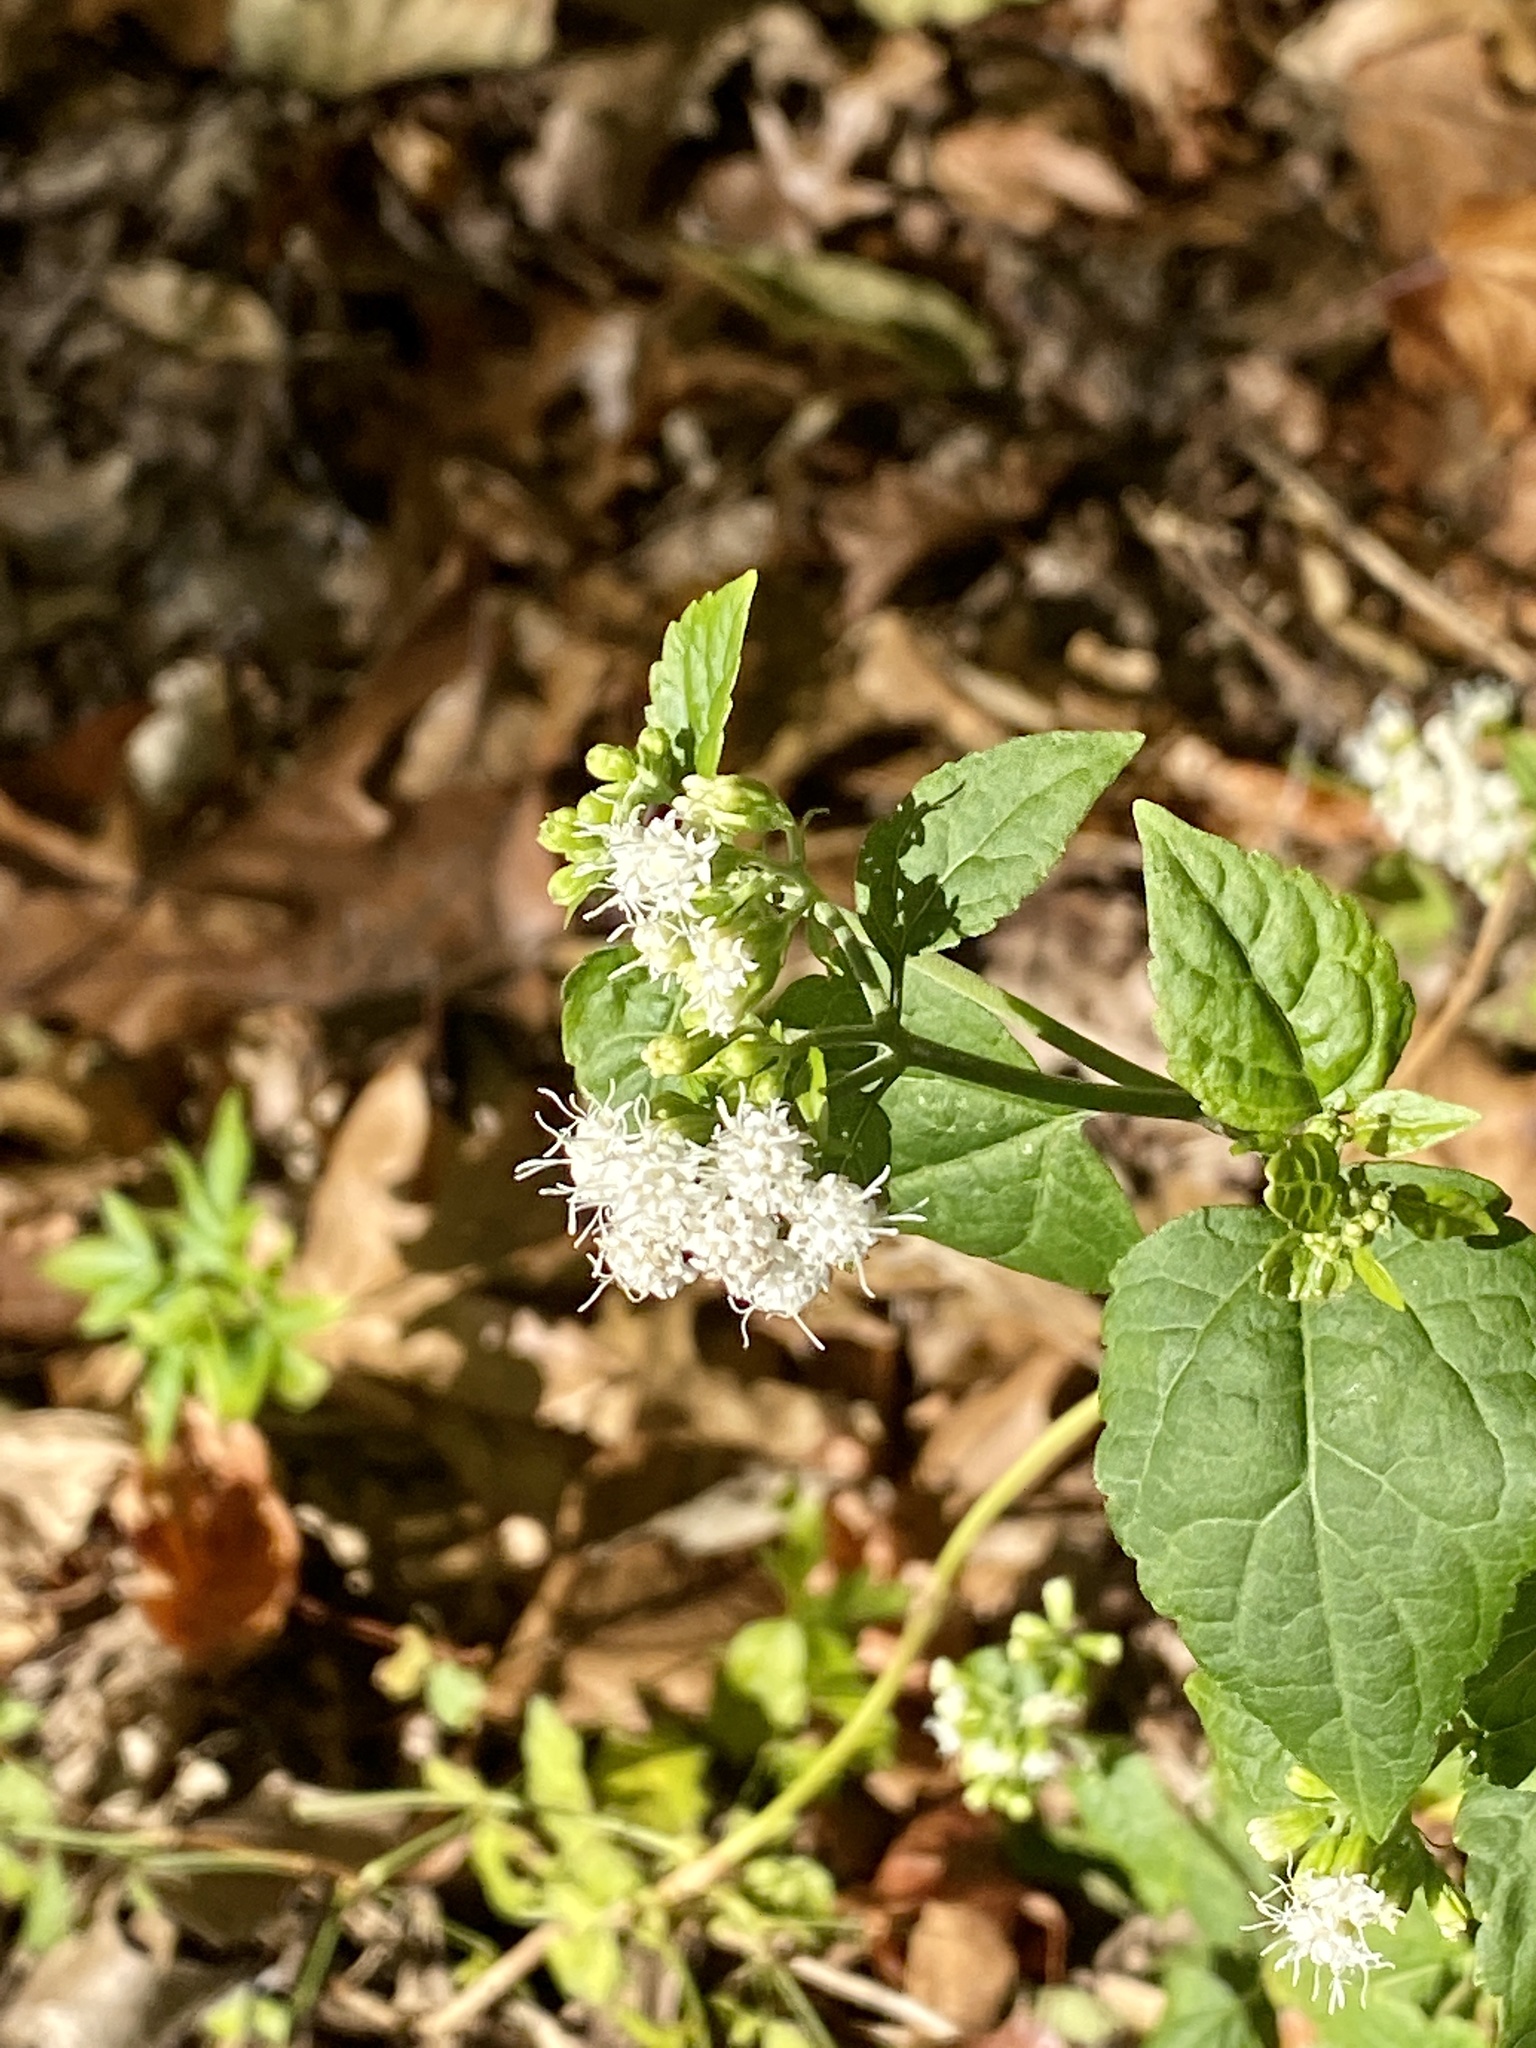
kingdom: Plantae
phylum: Tracheophyta
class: Magnoliopsida
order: Asterales
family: Asteraceae
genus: Ageratina
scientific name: Ageratina altissima
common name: White snakeroot
